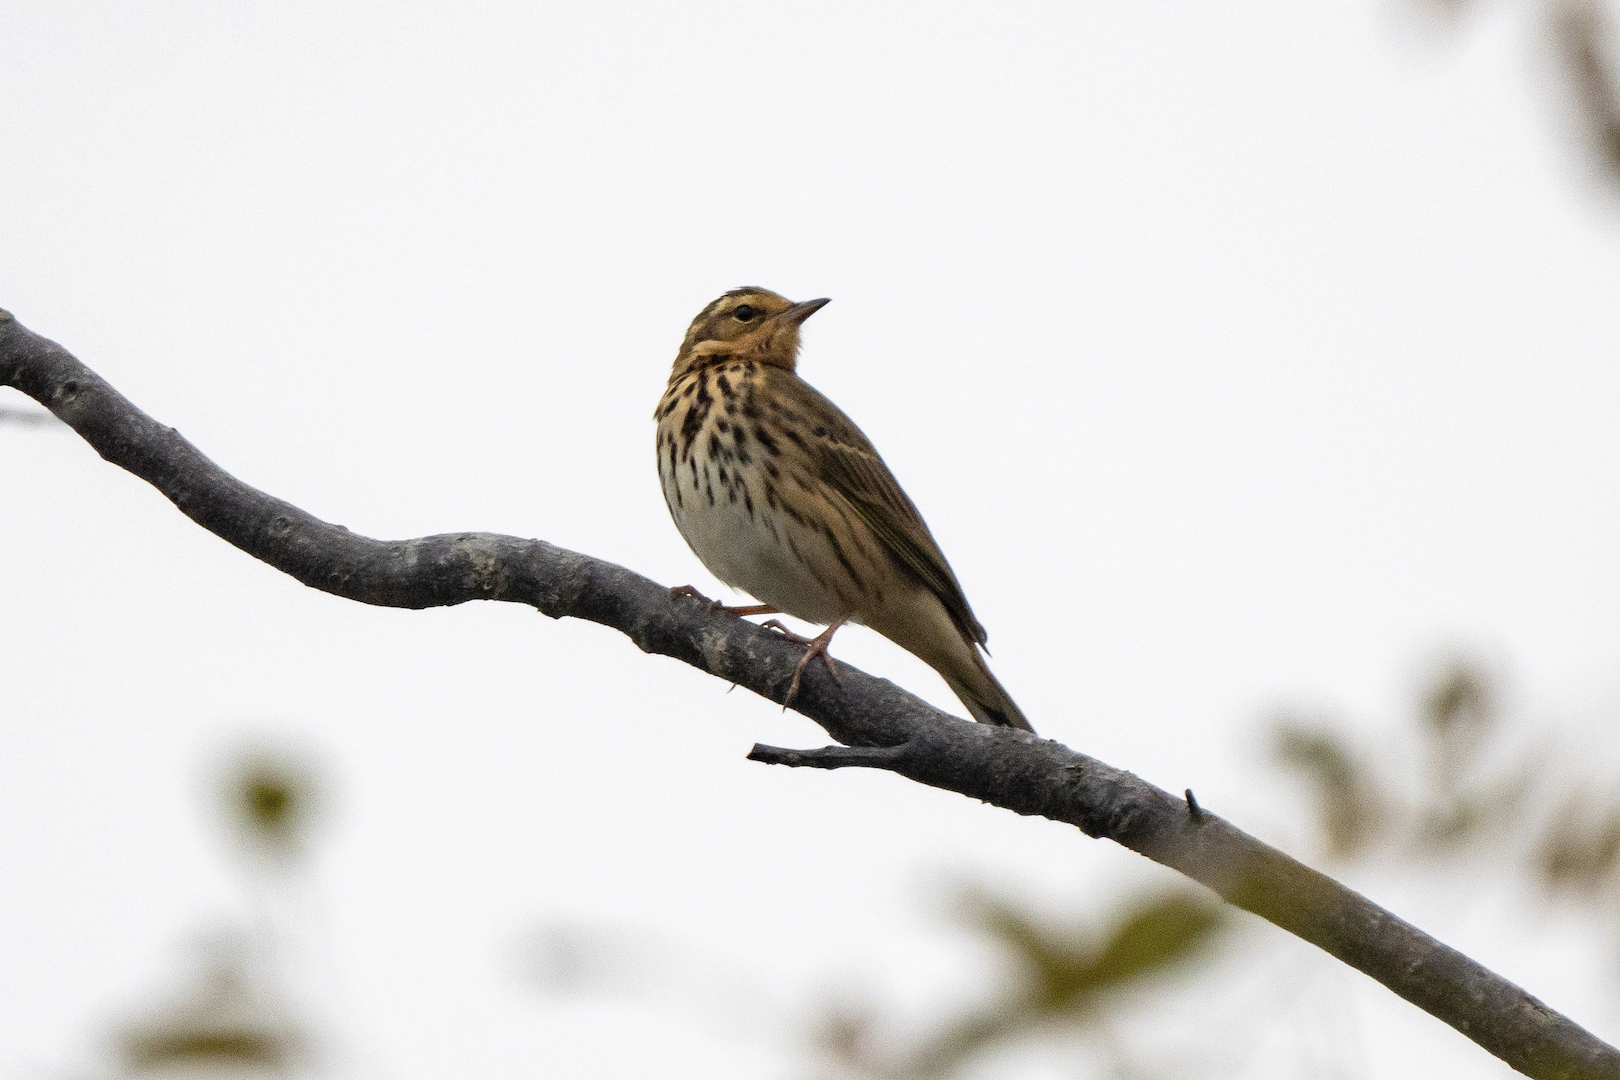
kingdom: Animalia
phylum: Chordata
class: Aves
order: Passeriformes
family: Motacillidae
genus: Anthus
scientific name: Anthus hodgsoni
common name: Olive-backed pipit
